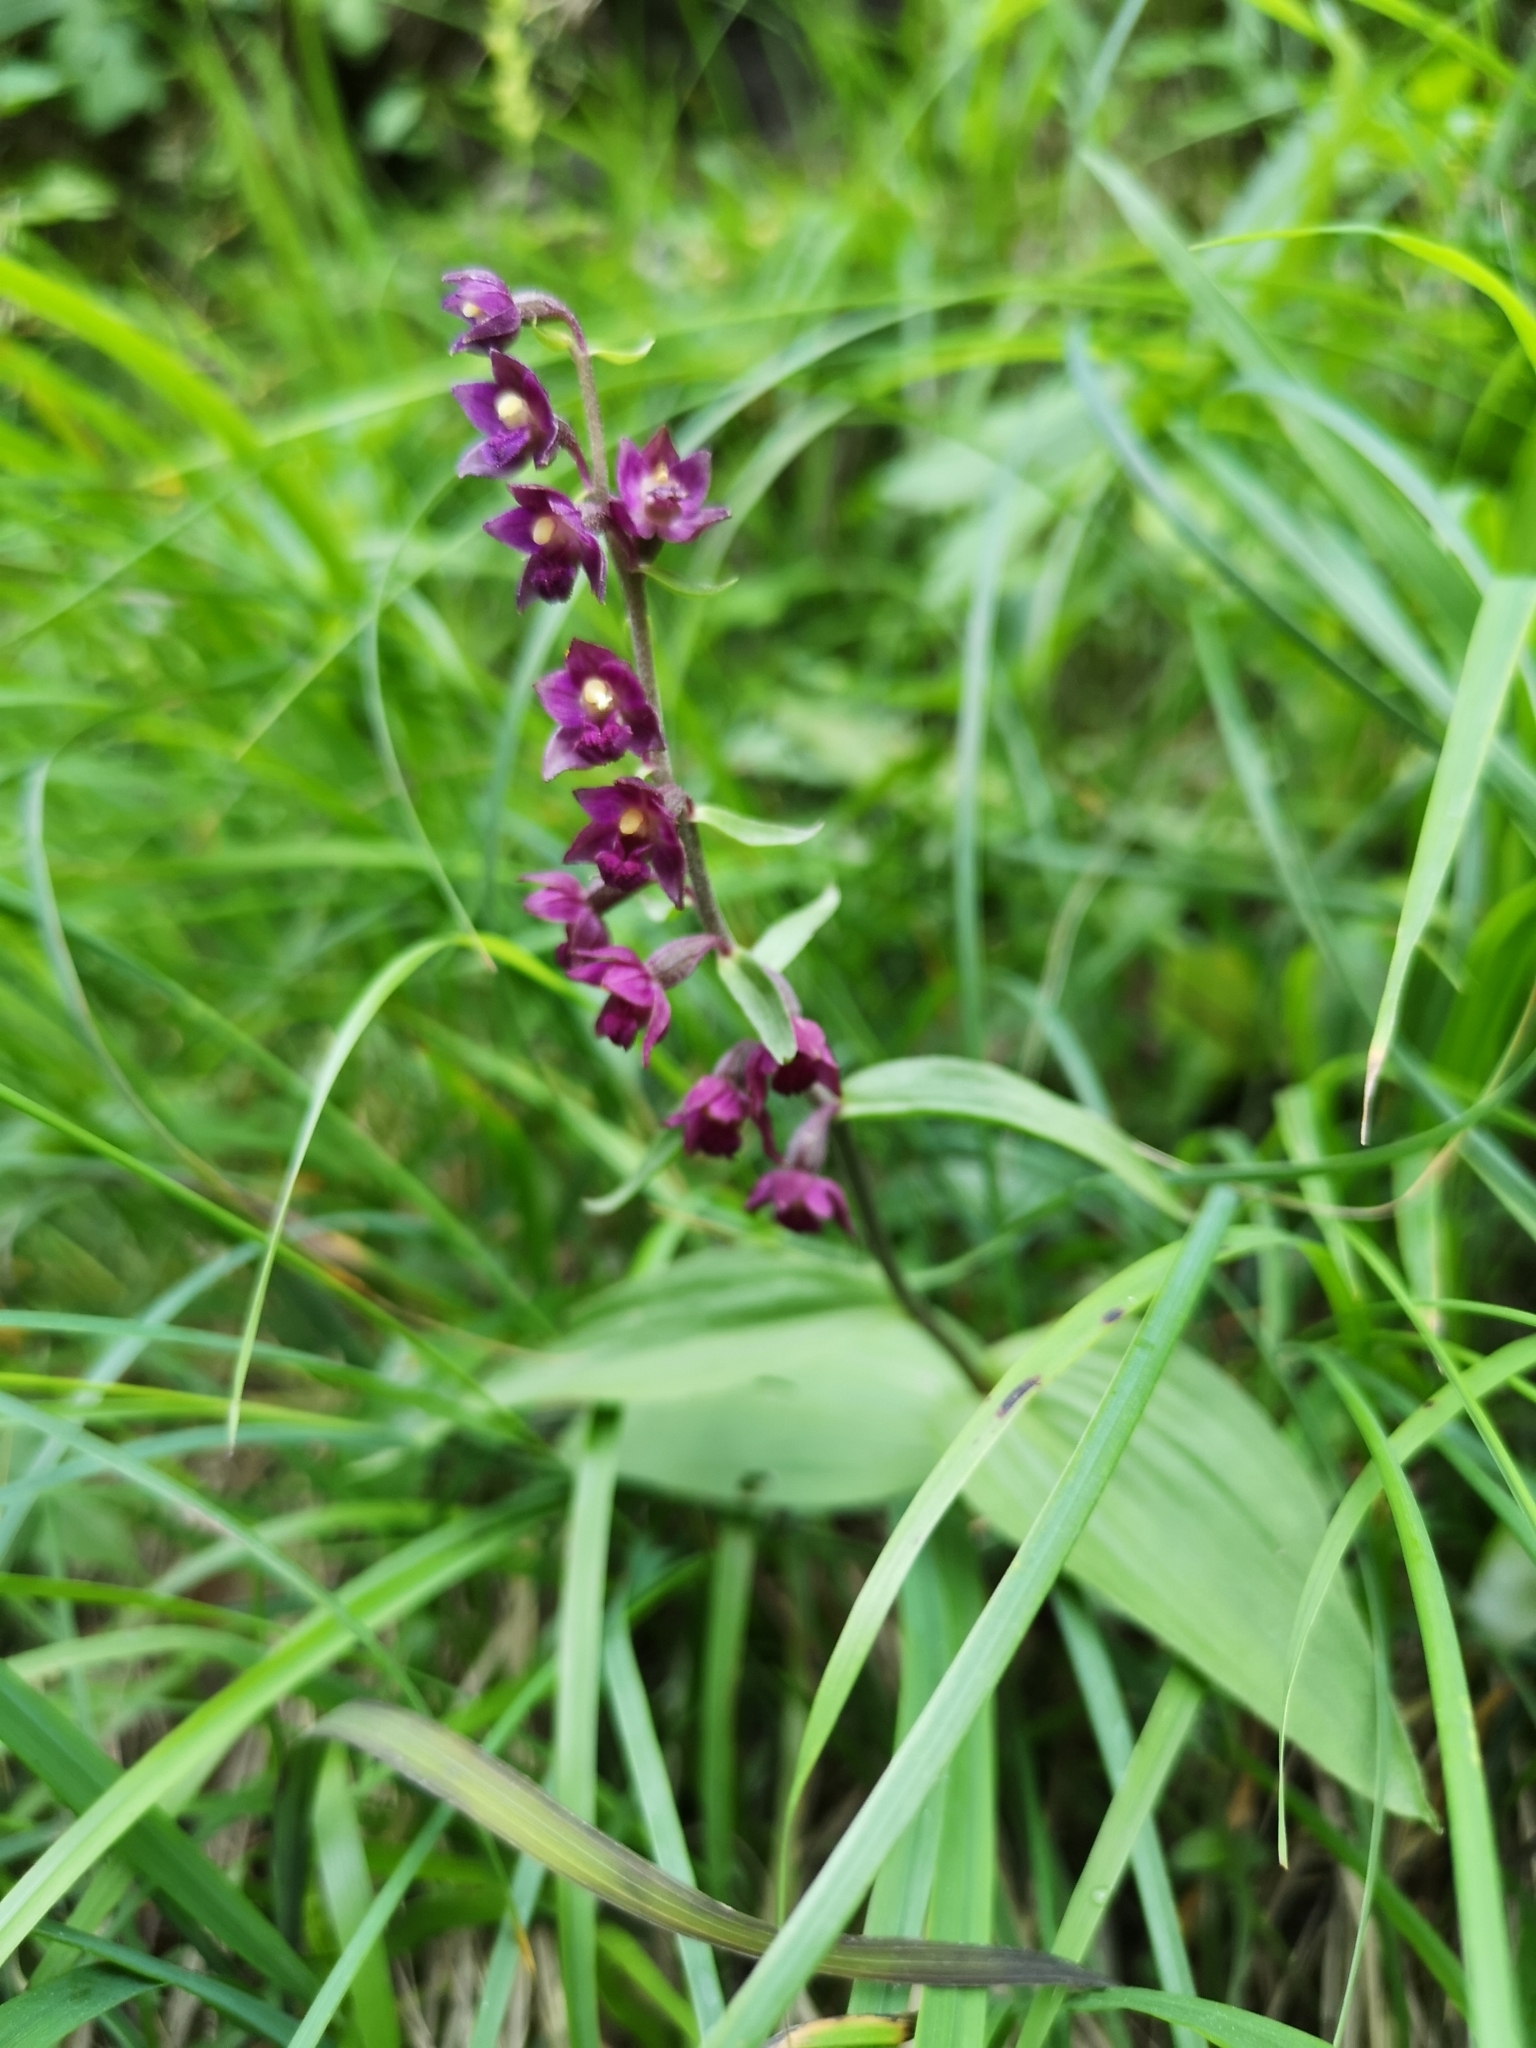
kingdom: Plantae
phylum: Tracheophyta
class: Liliopsida
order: Asparagales
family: Orchidaceae
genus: Epipactis
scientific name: Epipactis atrorubens
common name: Dark-red helleborine
